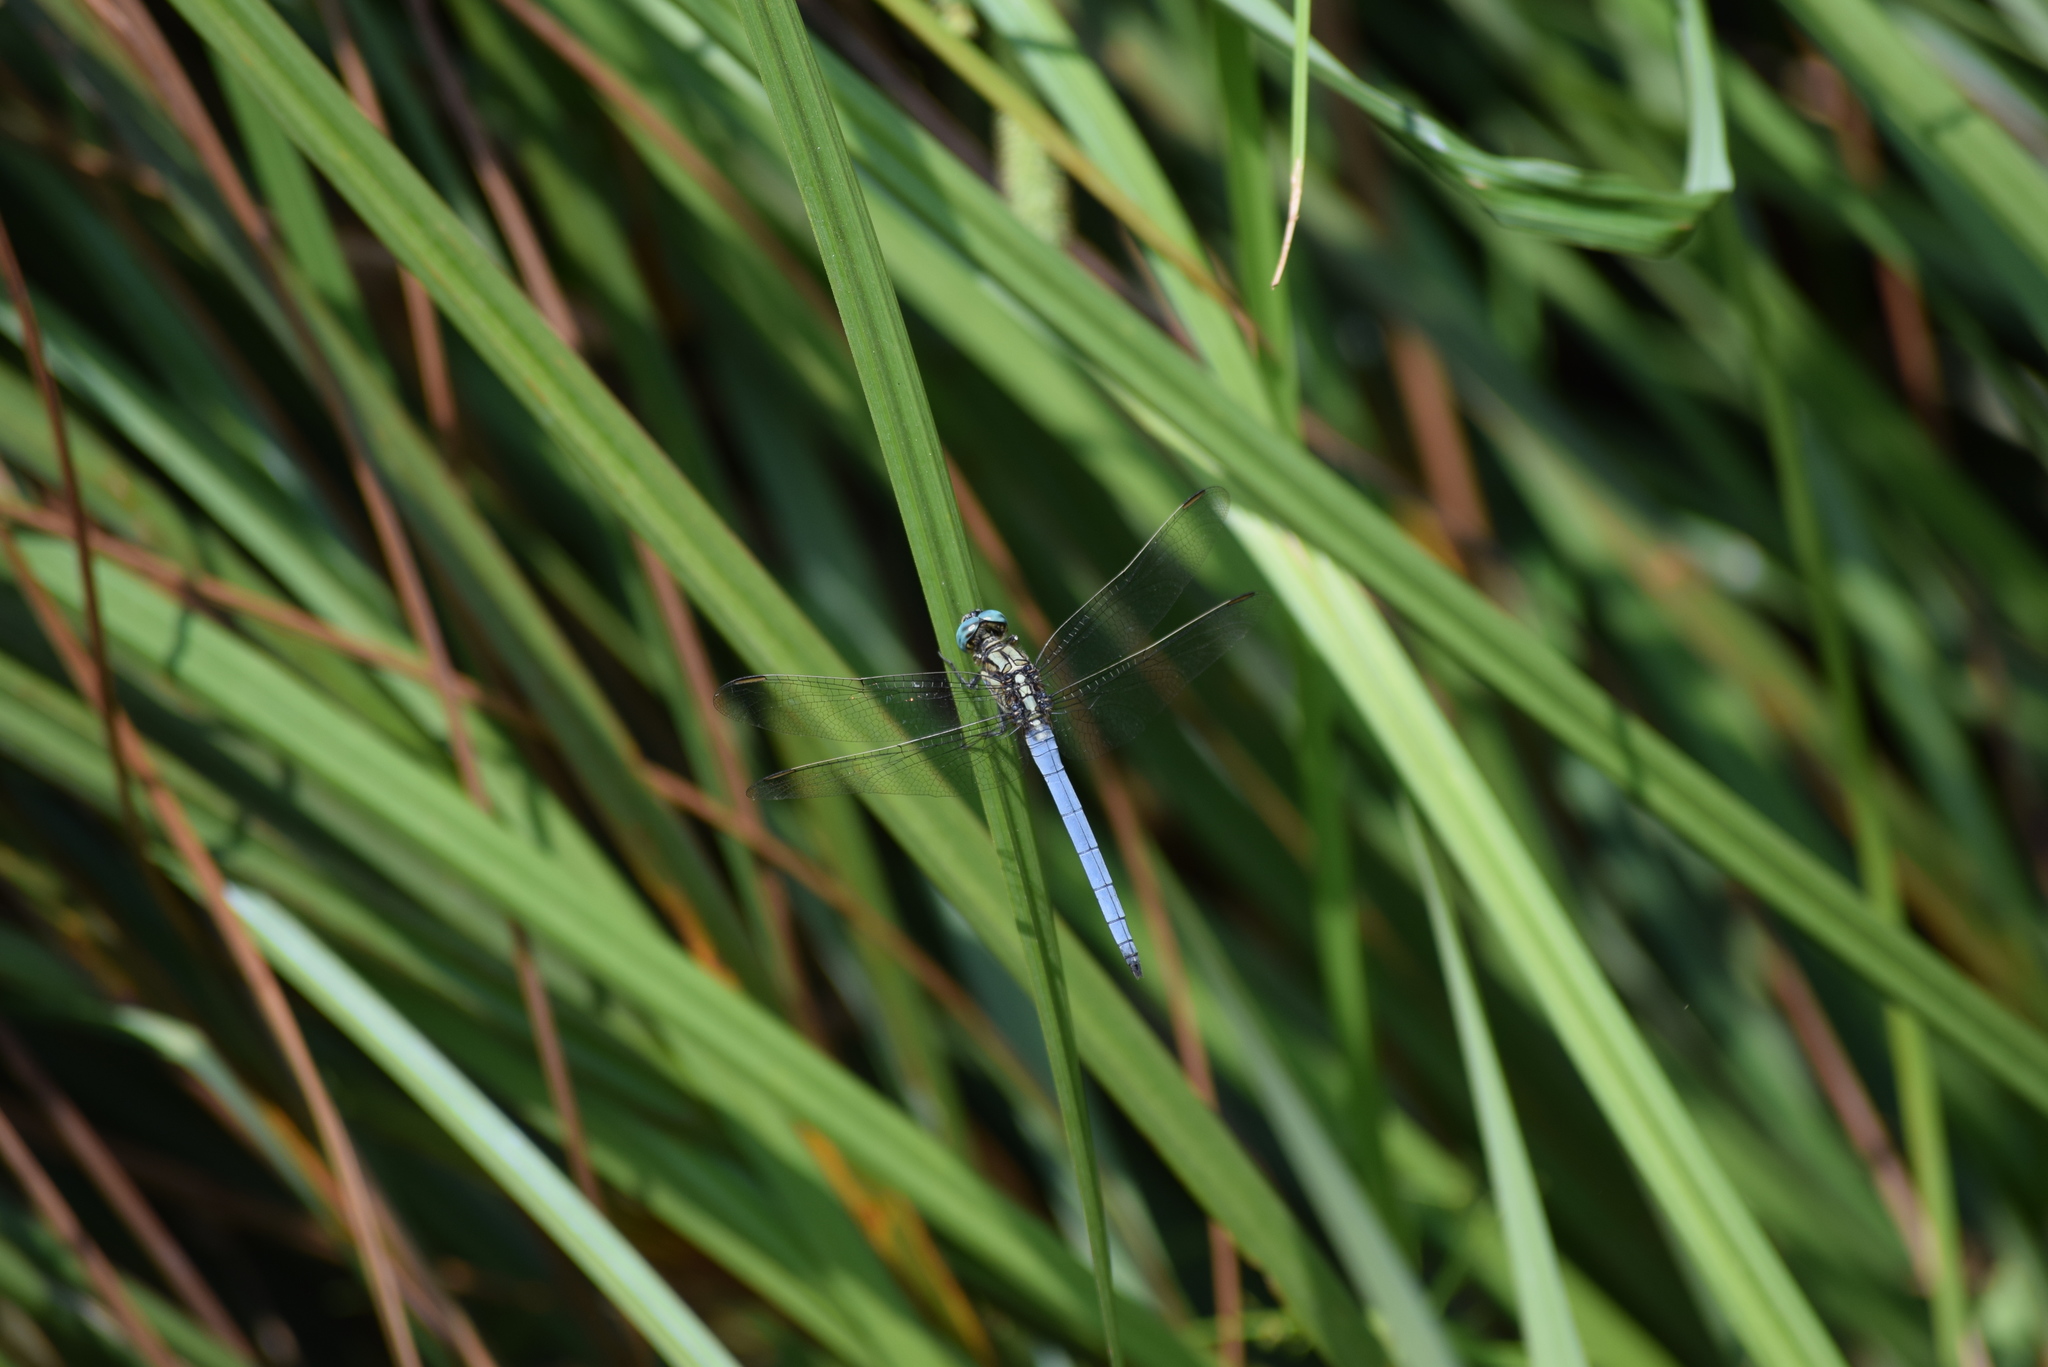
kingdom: Animalia
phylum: Arthropoda
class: Insecta
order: Odonata
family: Libellulidae
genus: Orthetrum
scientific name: Orthetrum luzonicum
